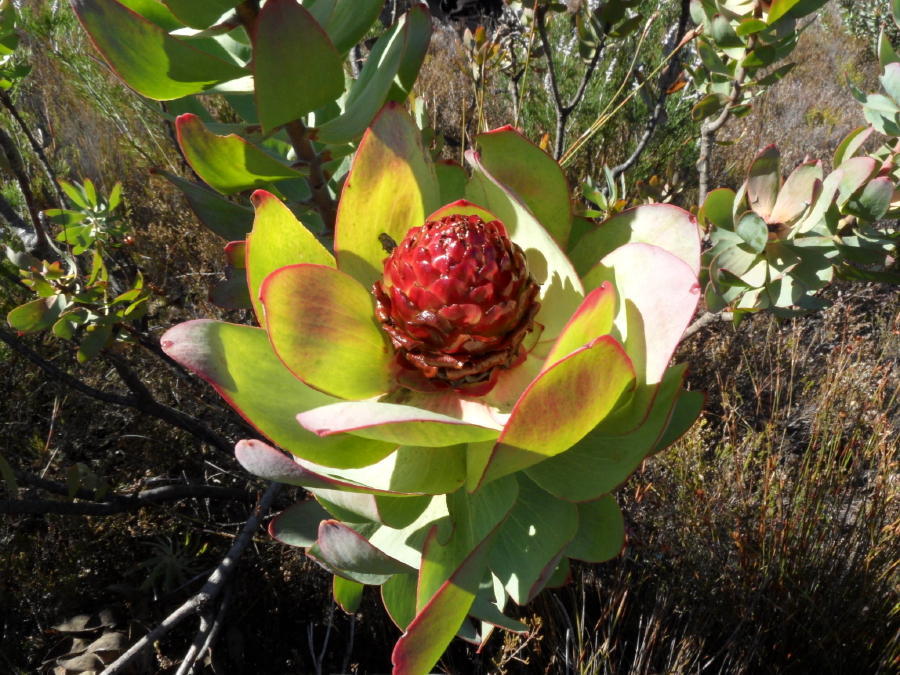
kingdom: Plantae
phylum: Tracheophyta
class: Magnoliopsida
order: Proteales
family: Proteaceae
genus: Leucadendron
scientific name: Leucadendron tinctum
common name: Spicy conebush
